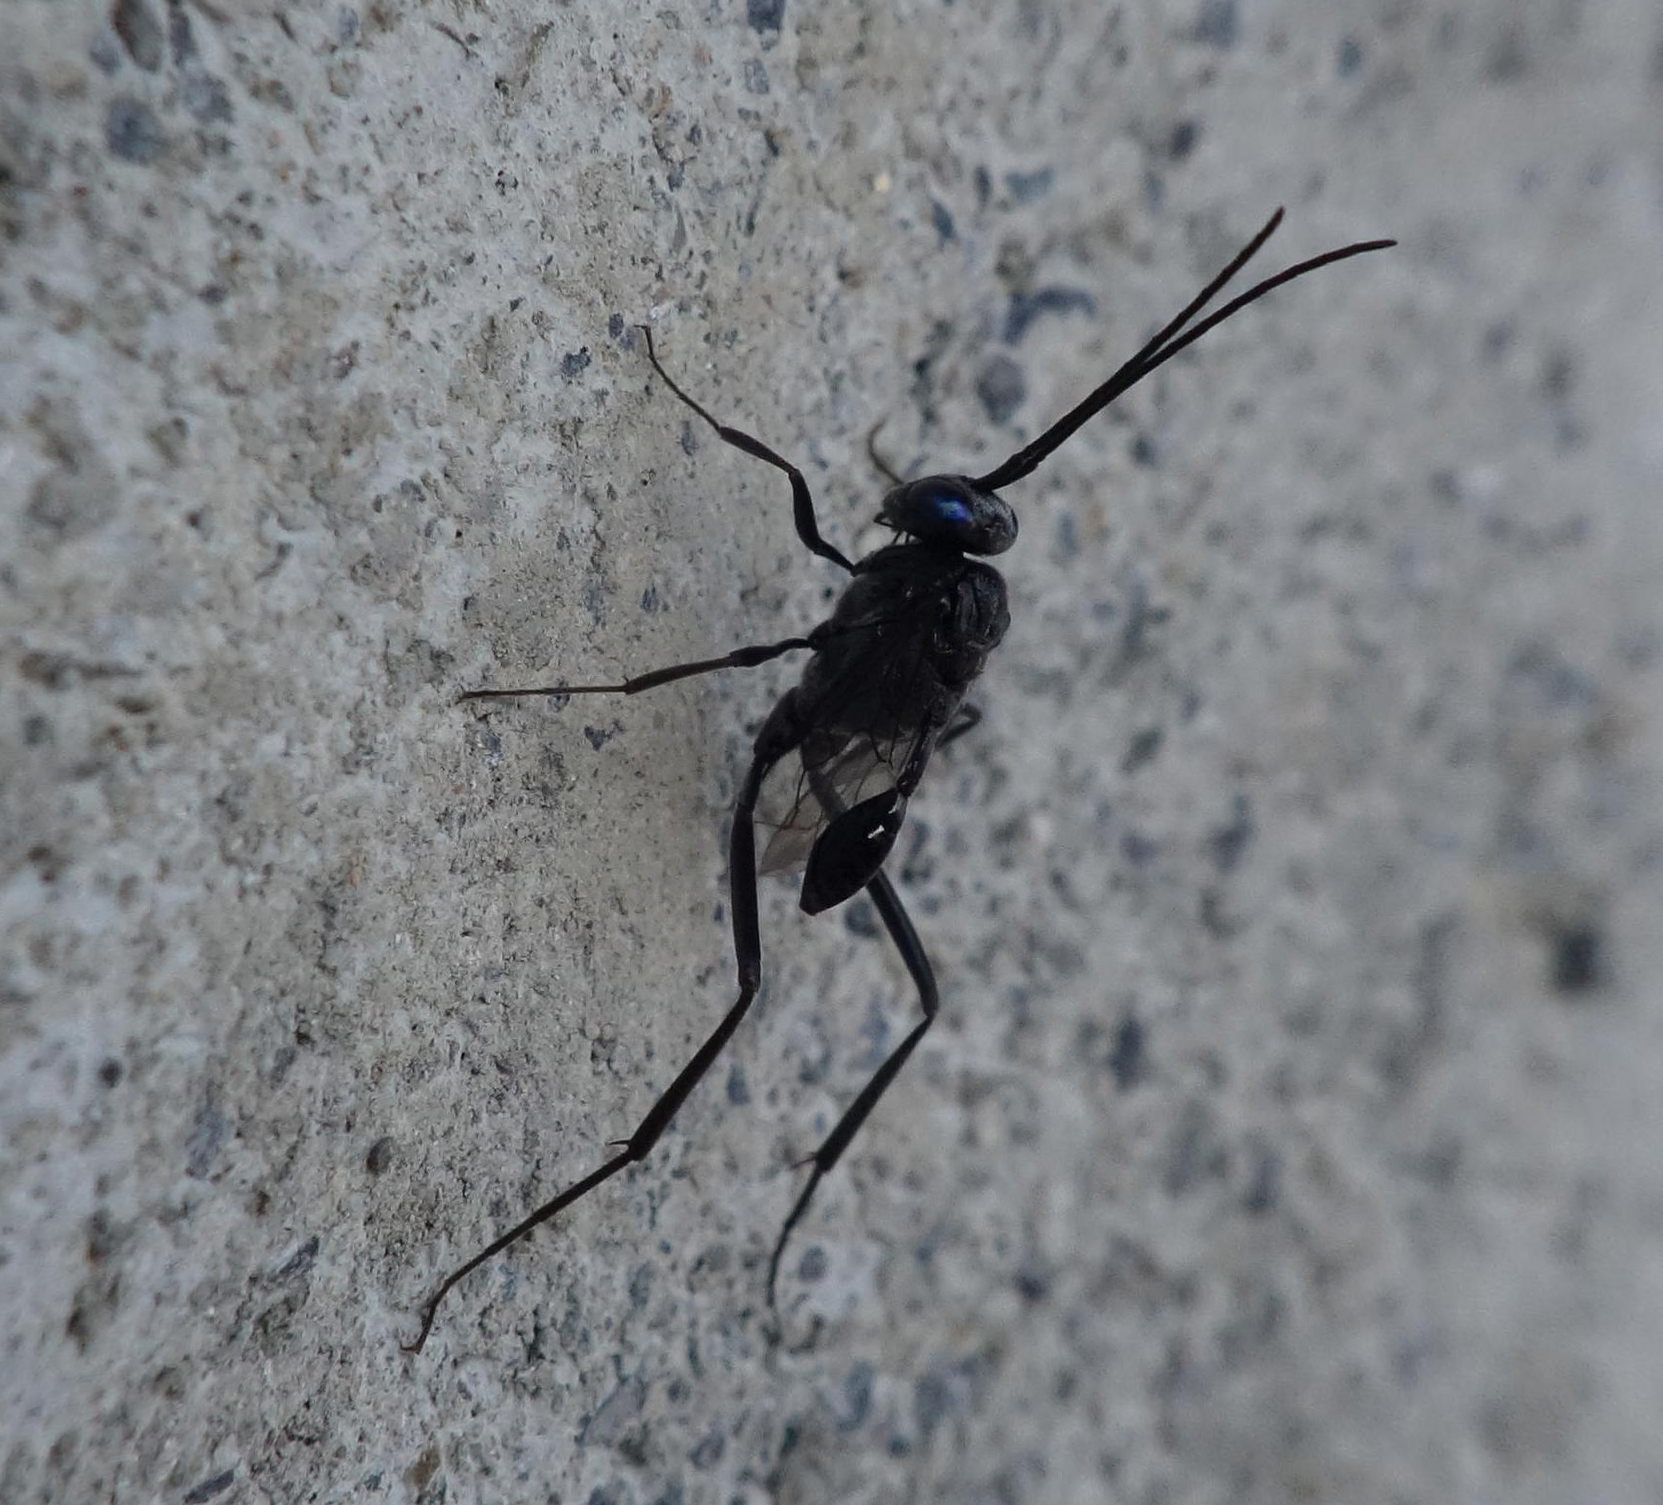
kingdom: Animalia
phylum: Arthropoda
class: Insecta
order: Hymenoptera
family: Evaniidae
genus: Evania
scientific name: Evania appendigaster
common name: Ensign wasp
